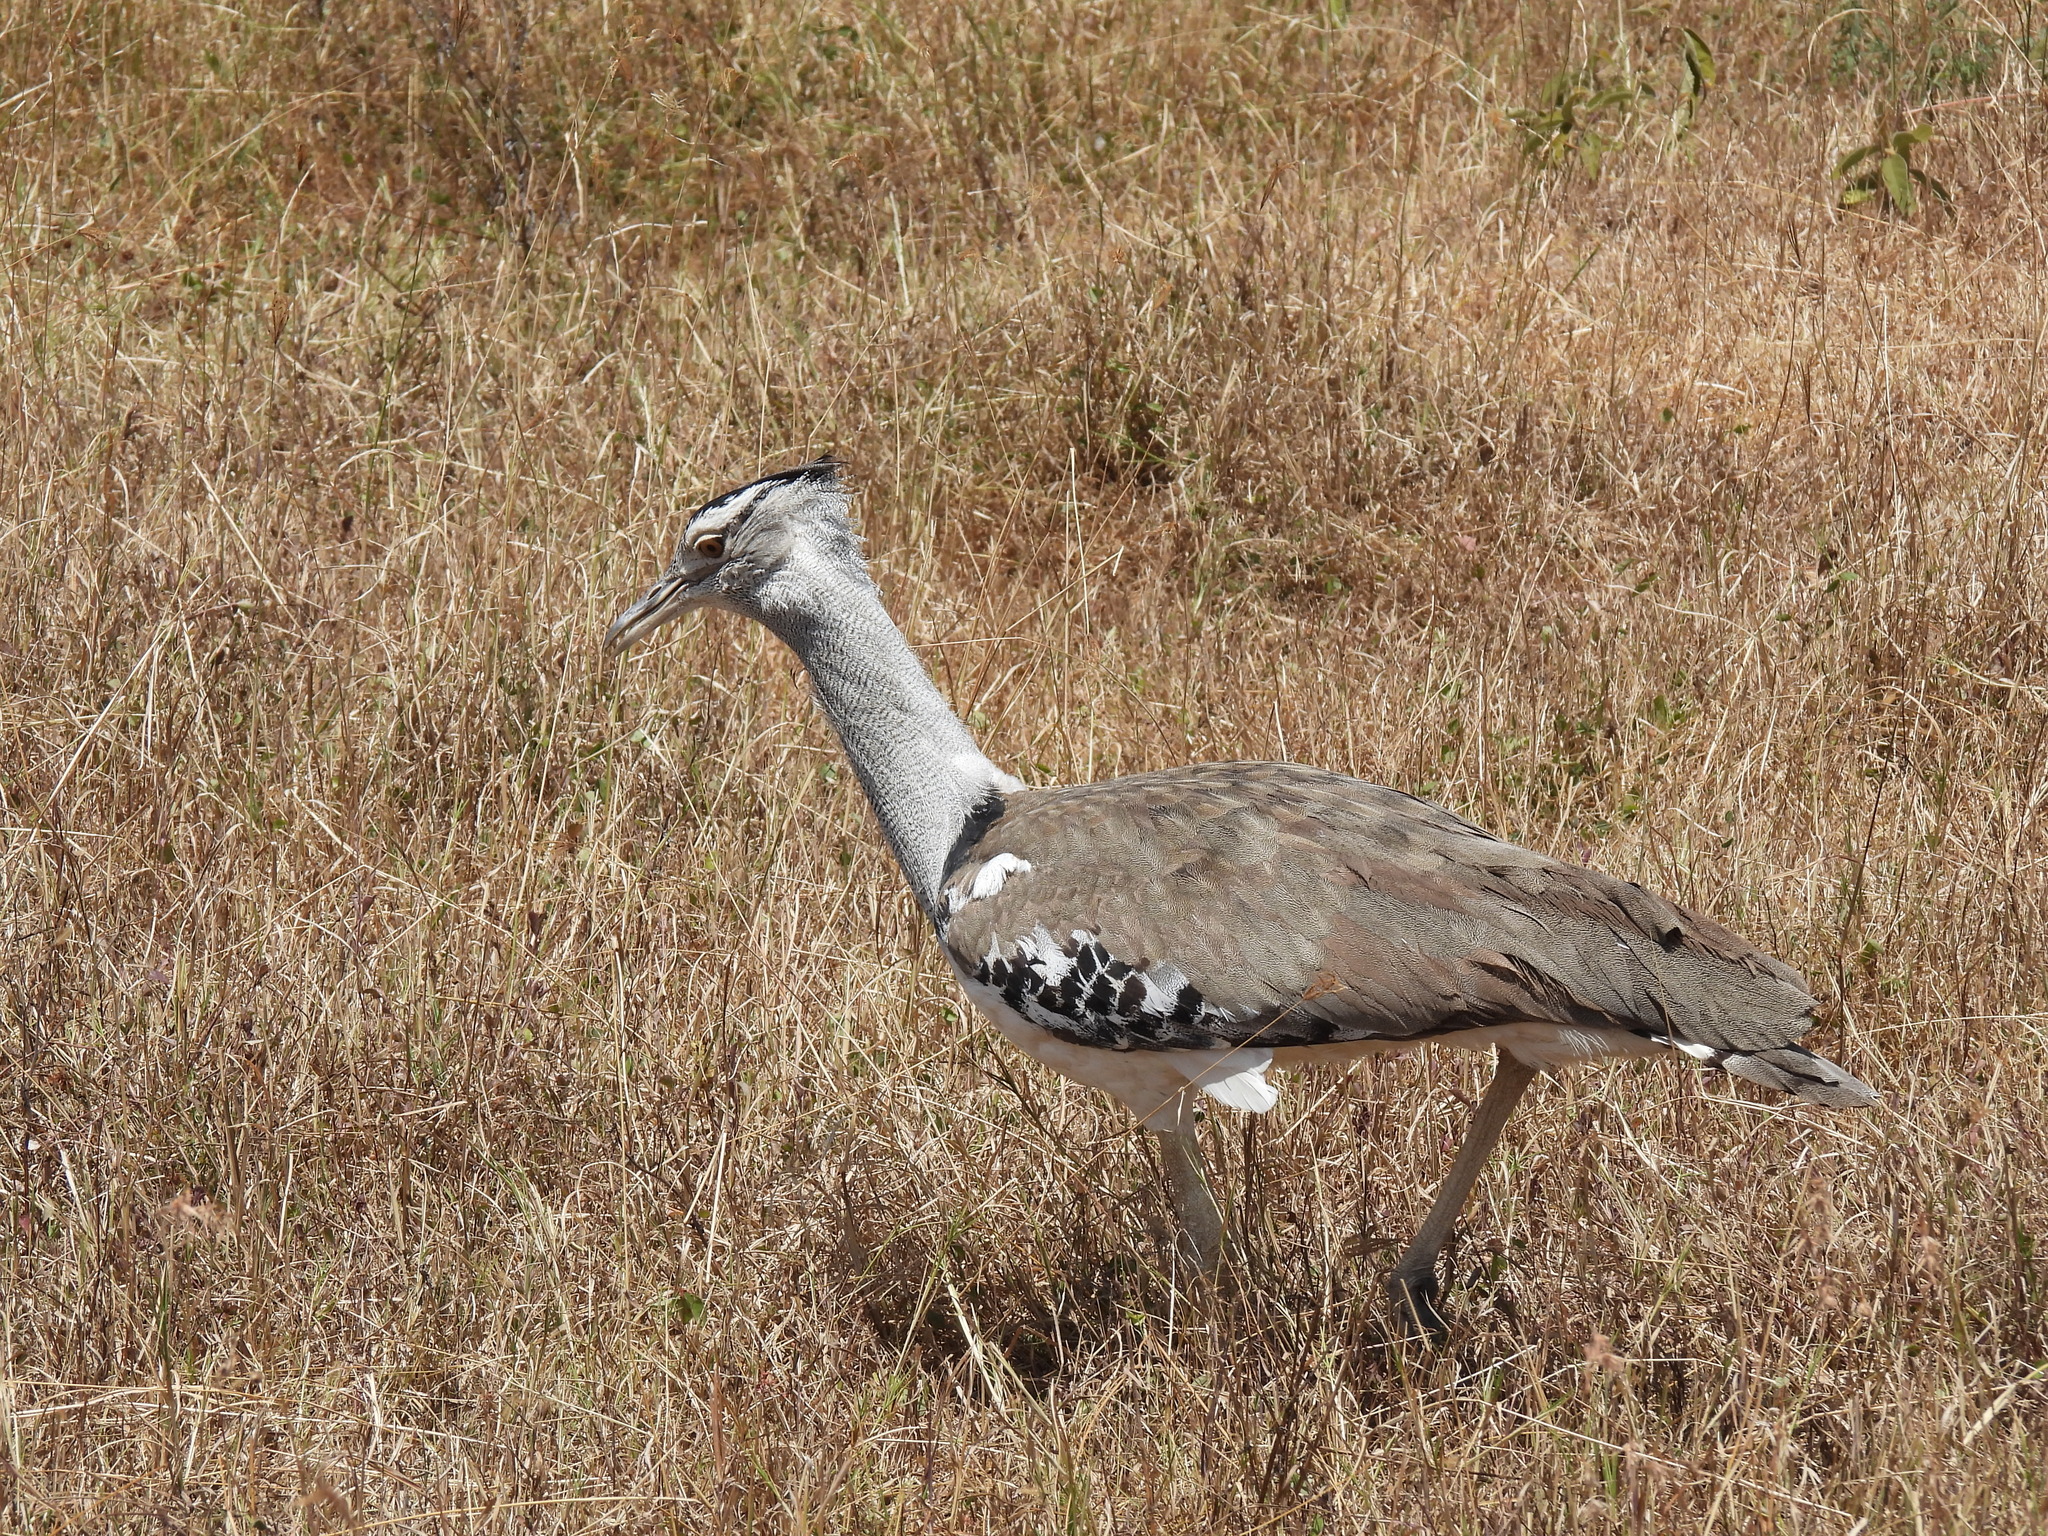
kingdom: Animalia
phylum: Chordata
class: Aves
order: Otidiformes
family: Otididae
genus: Ardeotis
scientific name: Ardeotis kori
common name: Kori bustard
